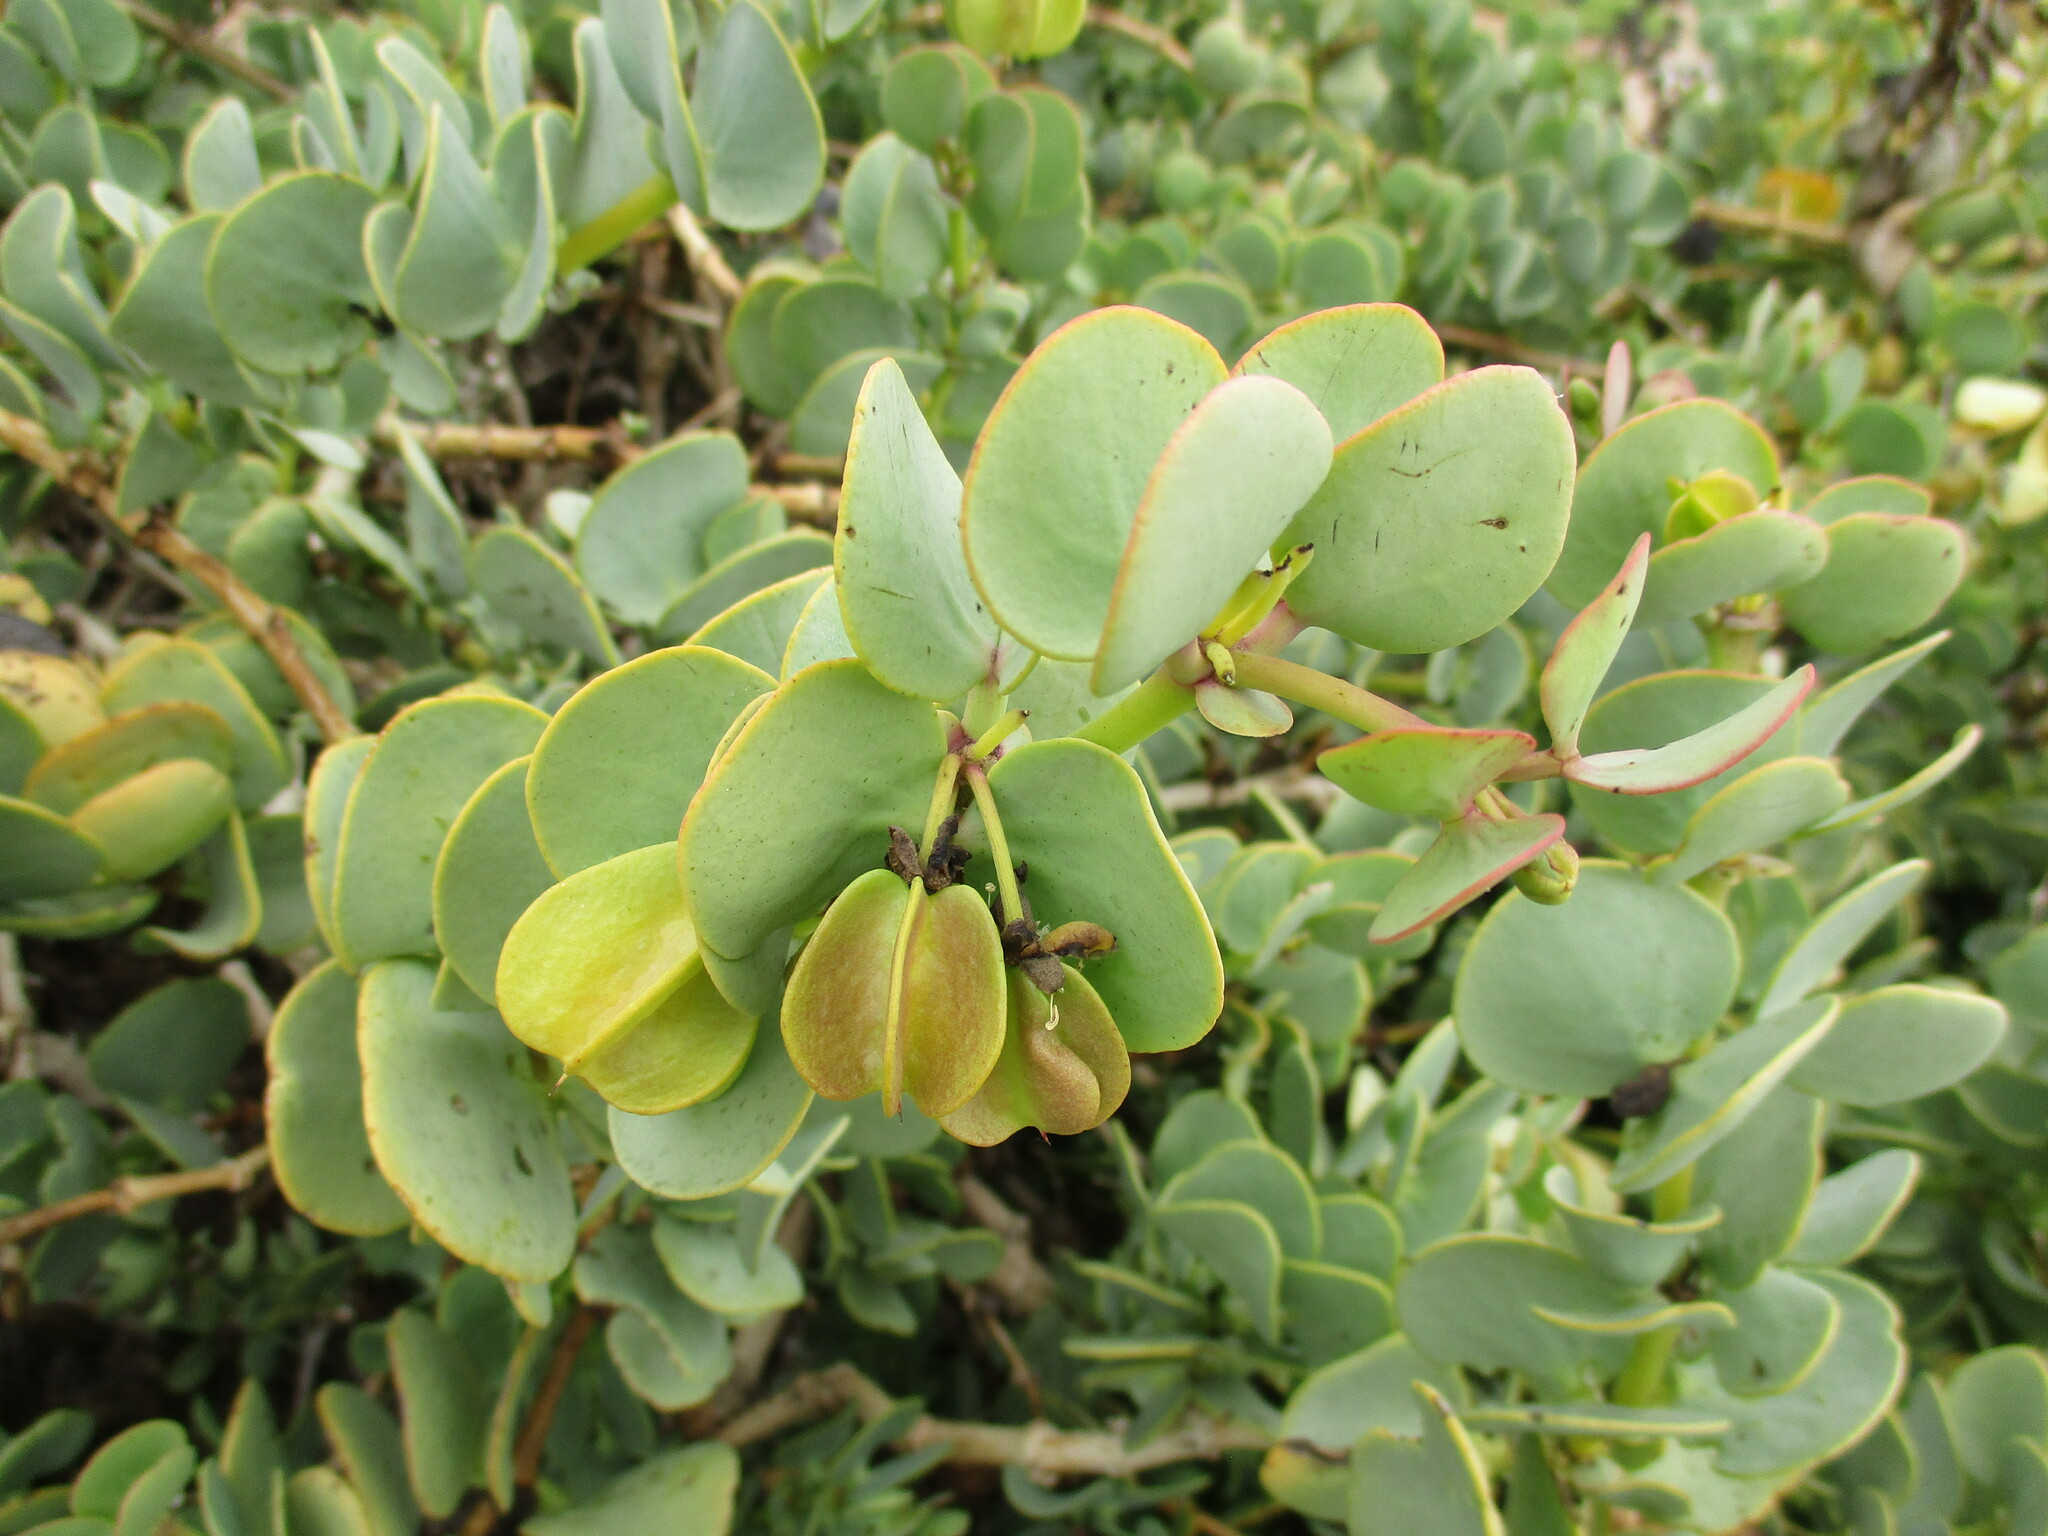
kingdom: Plantae
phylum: Tracheophyta
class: Magnoliopsida
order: Zygophyllales
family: Zygophyllaceae
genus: Tetraena
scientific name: Tetraena stapfii
